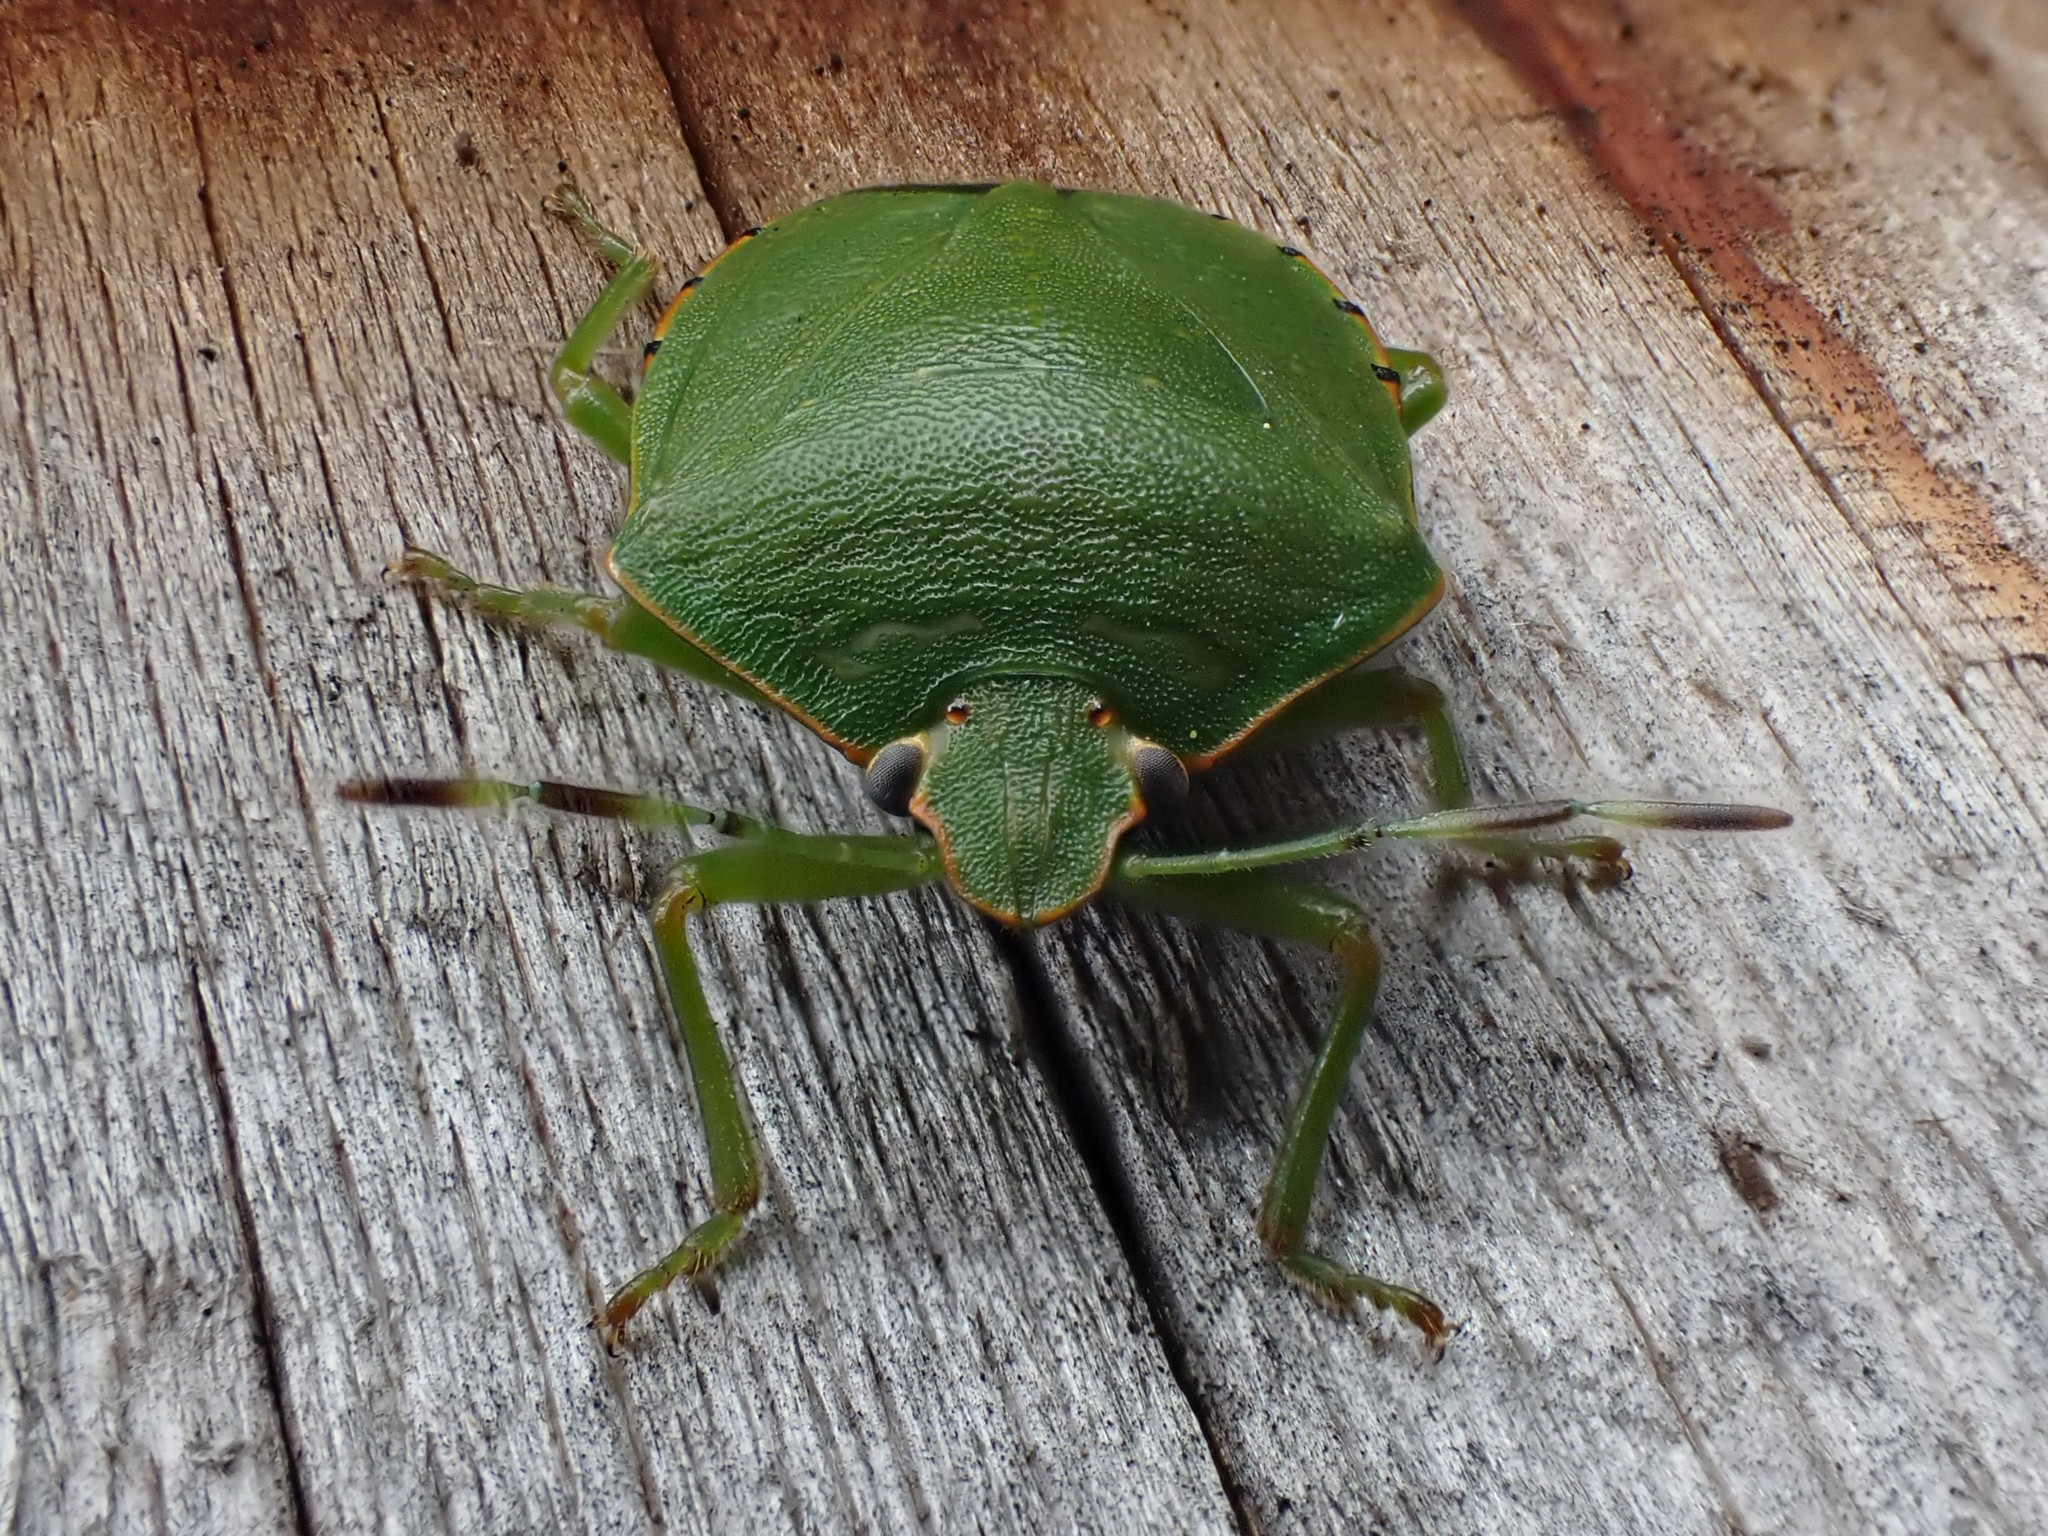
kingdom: Animalia
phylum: Arthropoda
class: Insecta
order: Hemiptera
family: Pentatomidae
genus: Chinavia
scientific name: Chinavia hilaris
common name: Green stink bug
